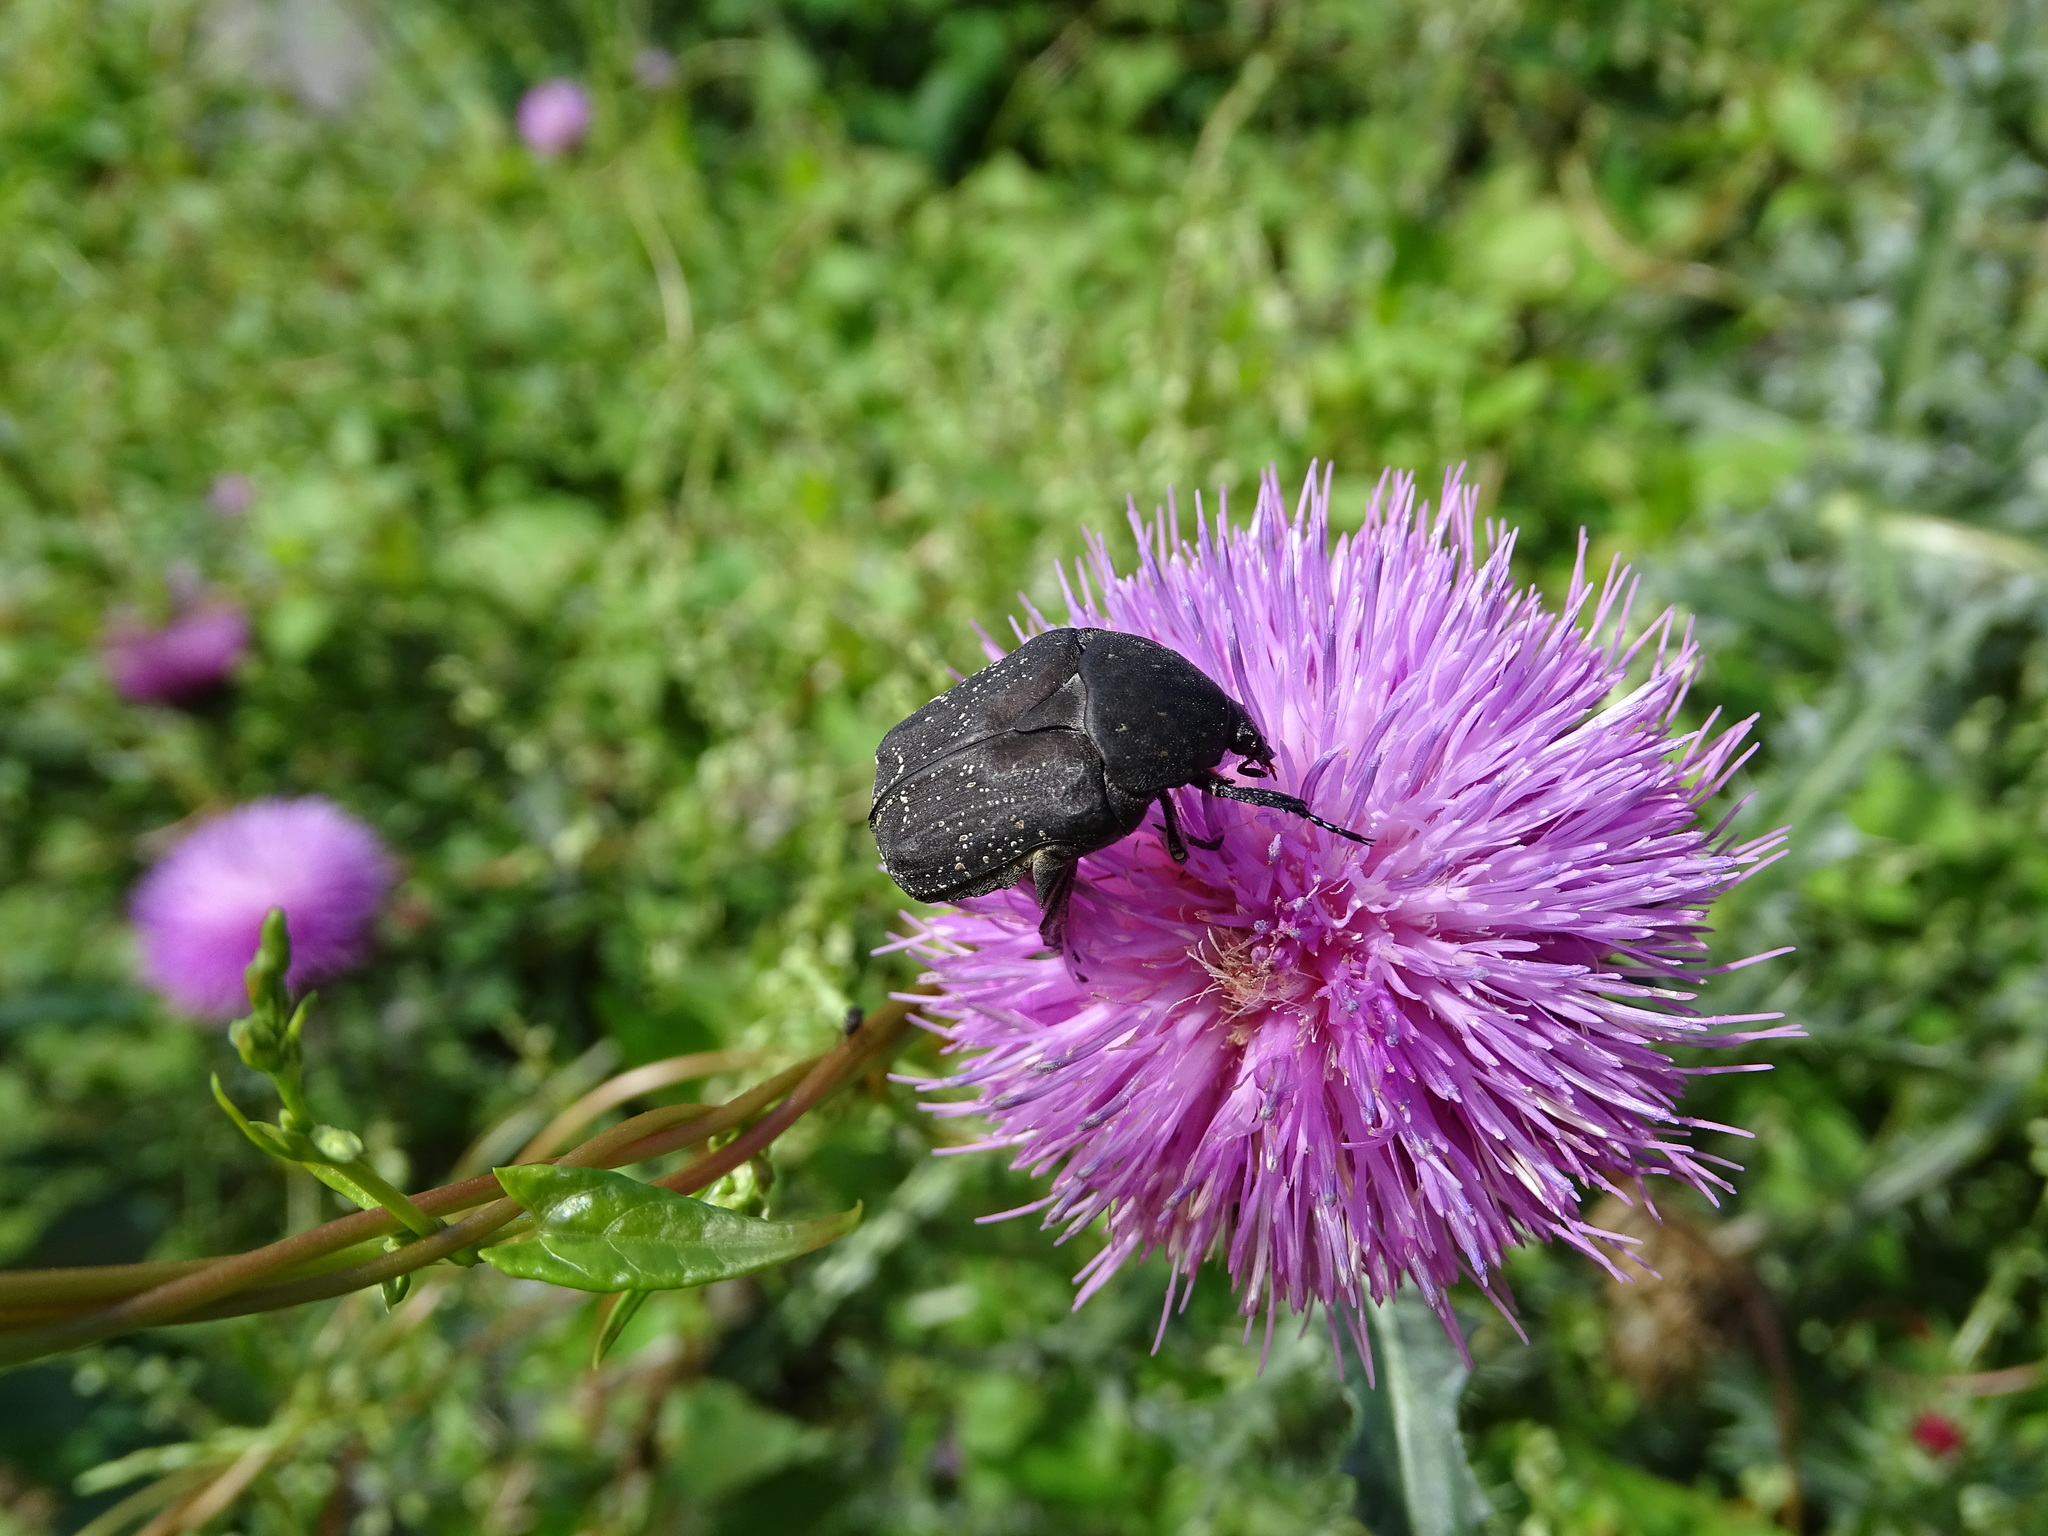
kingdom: Animalia
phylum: Arthropoda
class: Insecta
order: Coleoptera
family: Scarabaeidae
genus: Protaetia
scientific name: Protaetia morio
